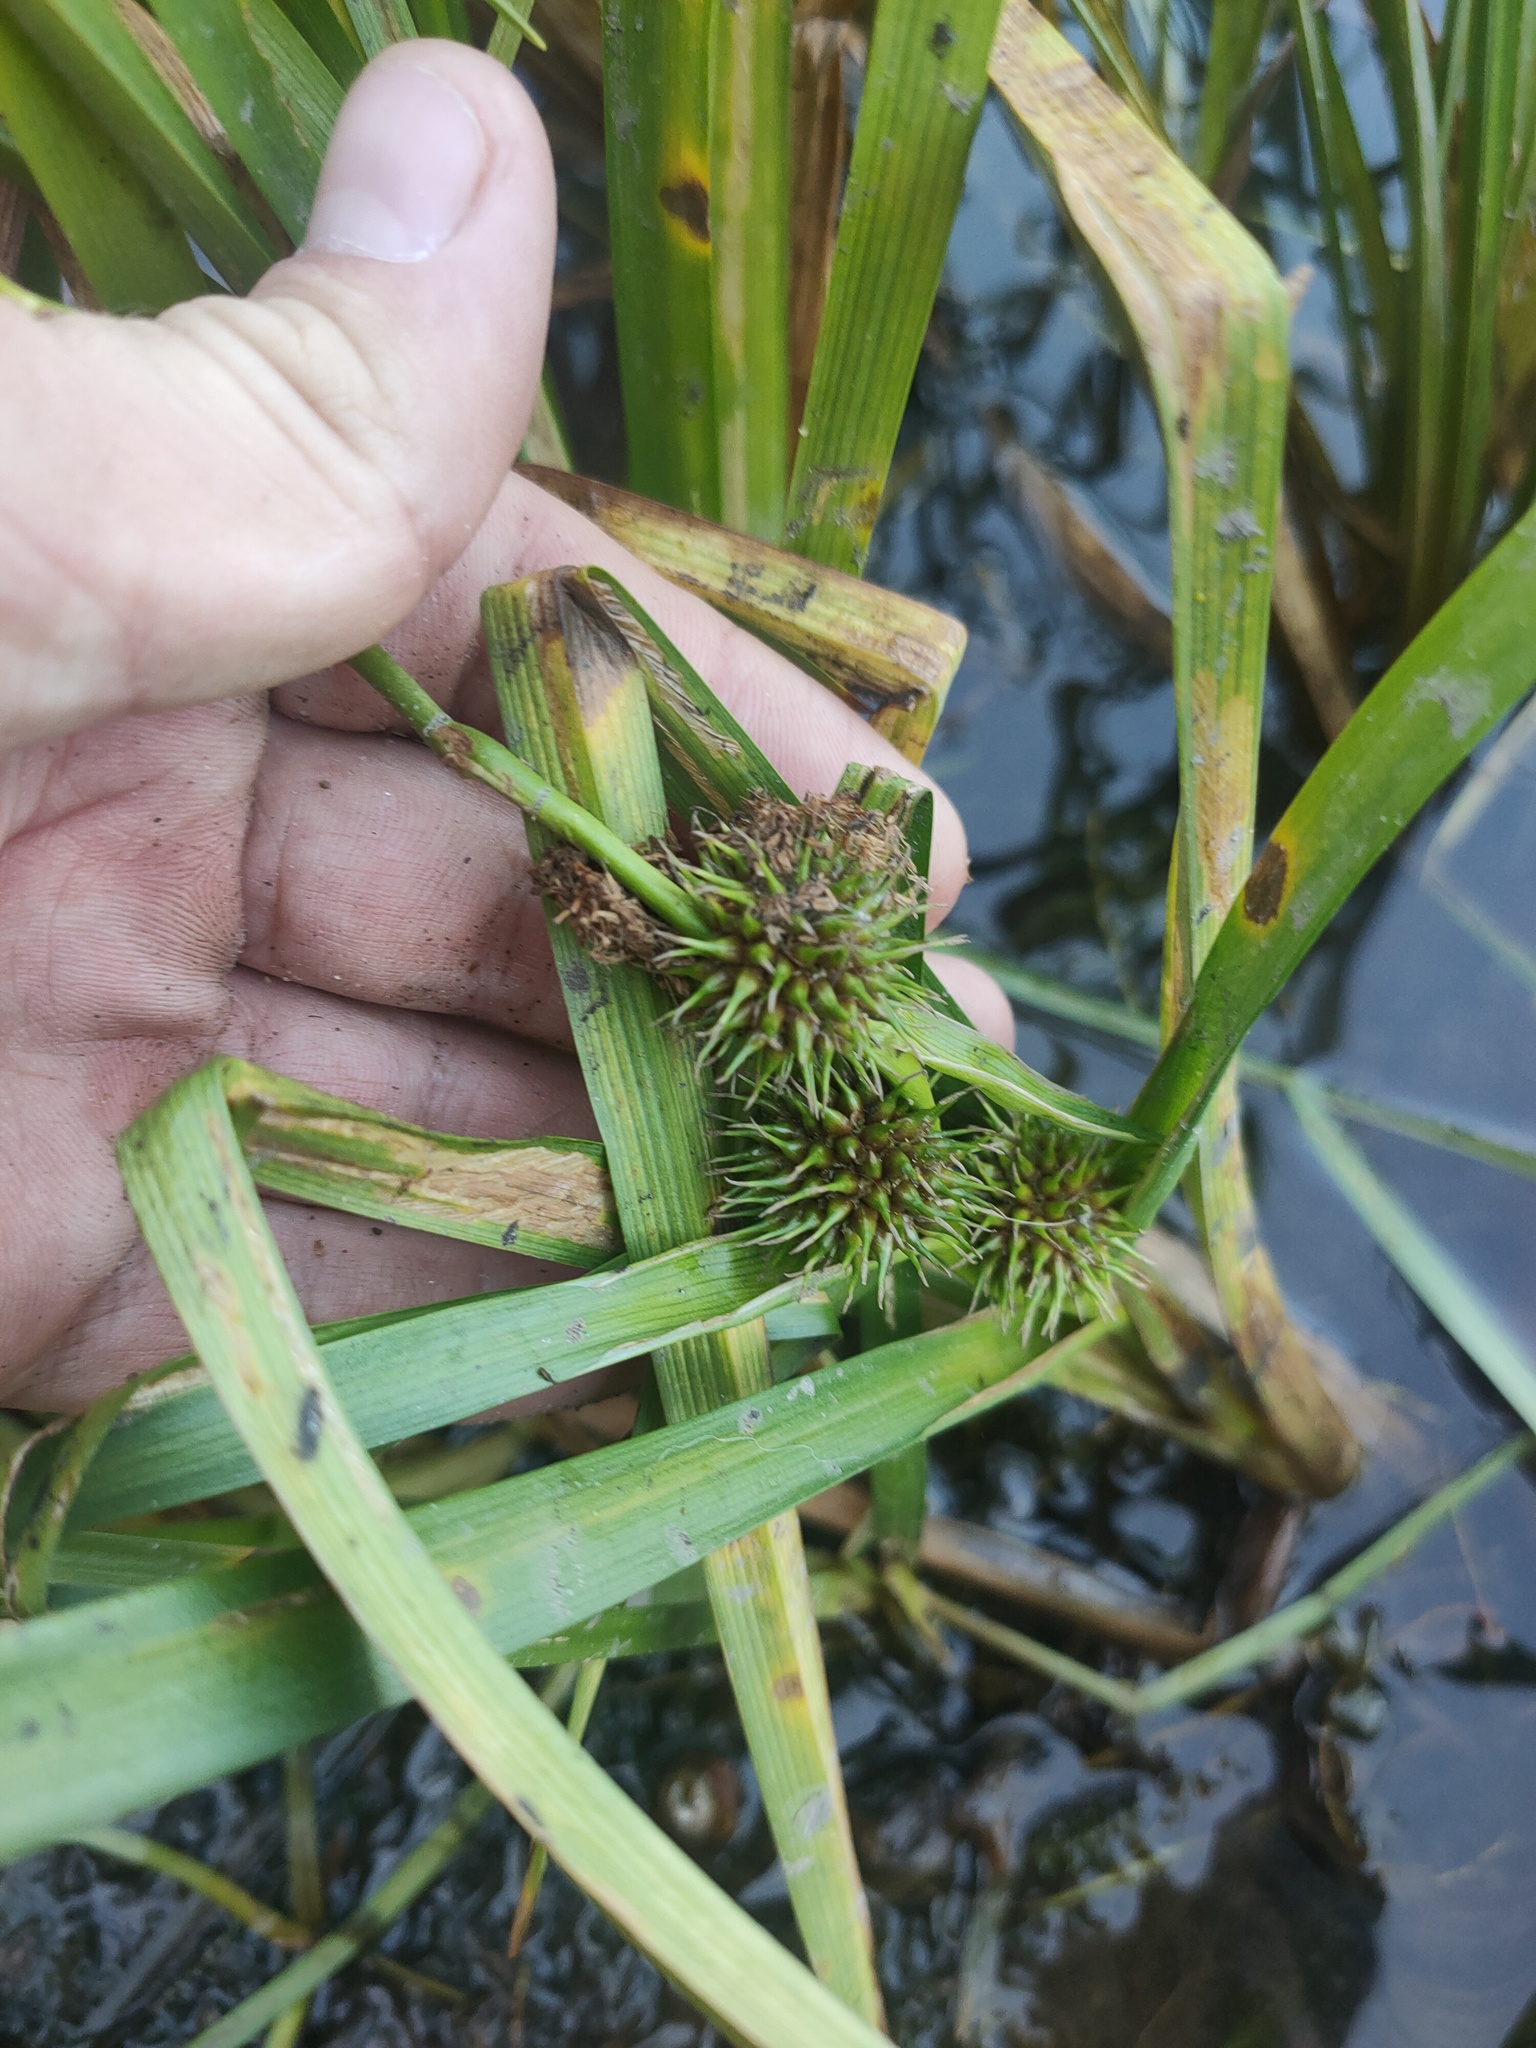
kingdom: Plantae
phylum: Tracheophyta
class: Liliopsida
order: Poales
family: Typhaceae
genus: Sparganium
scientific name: Sparganium emersum
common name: Unbranched bur-reed
